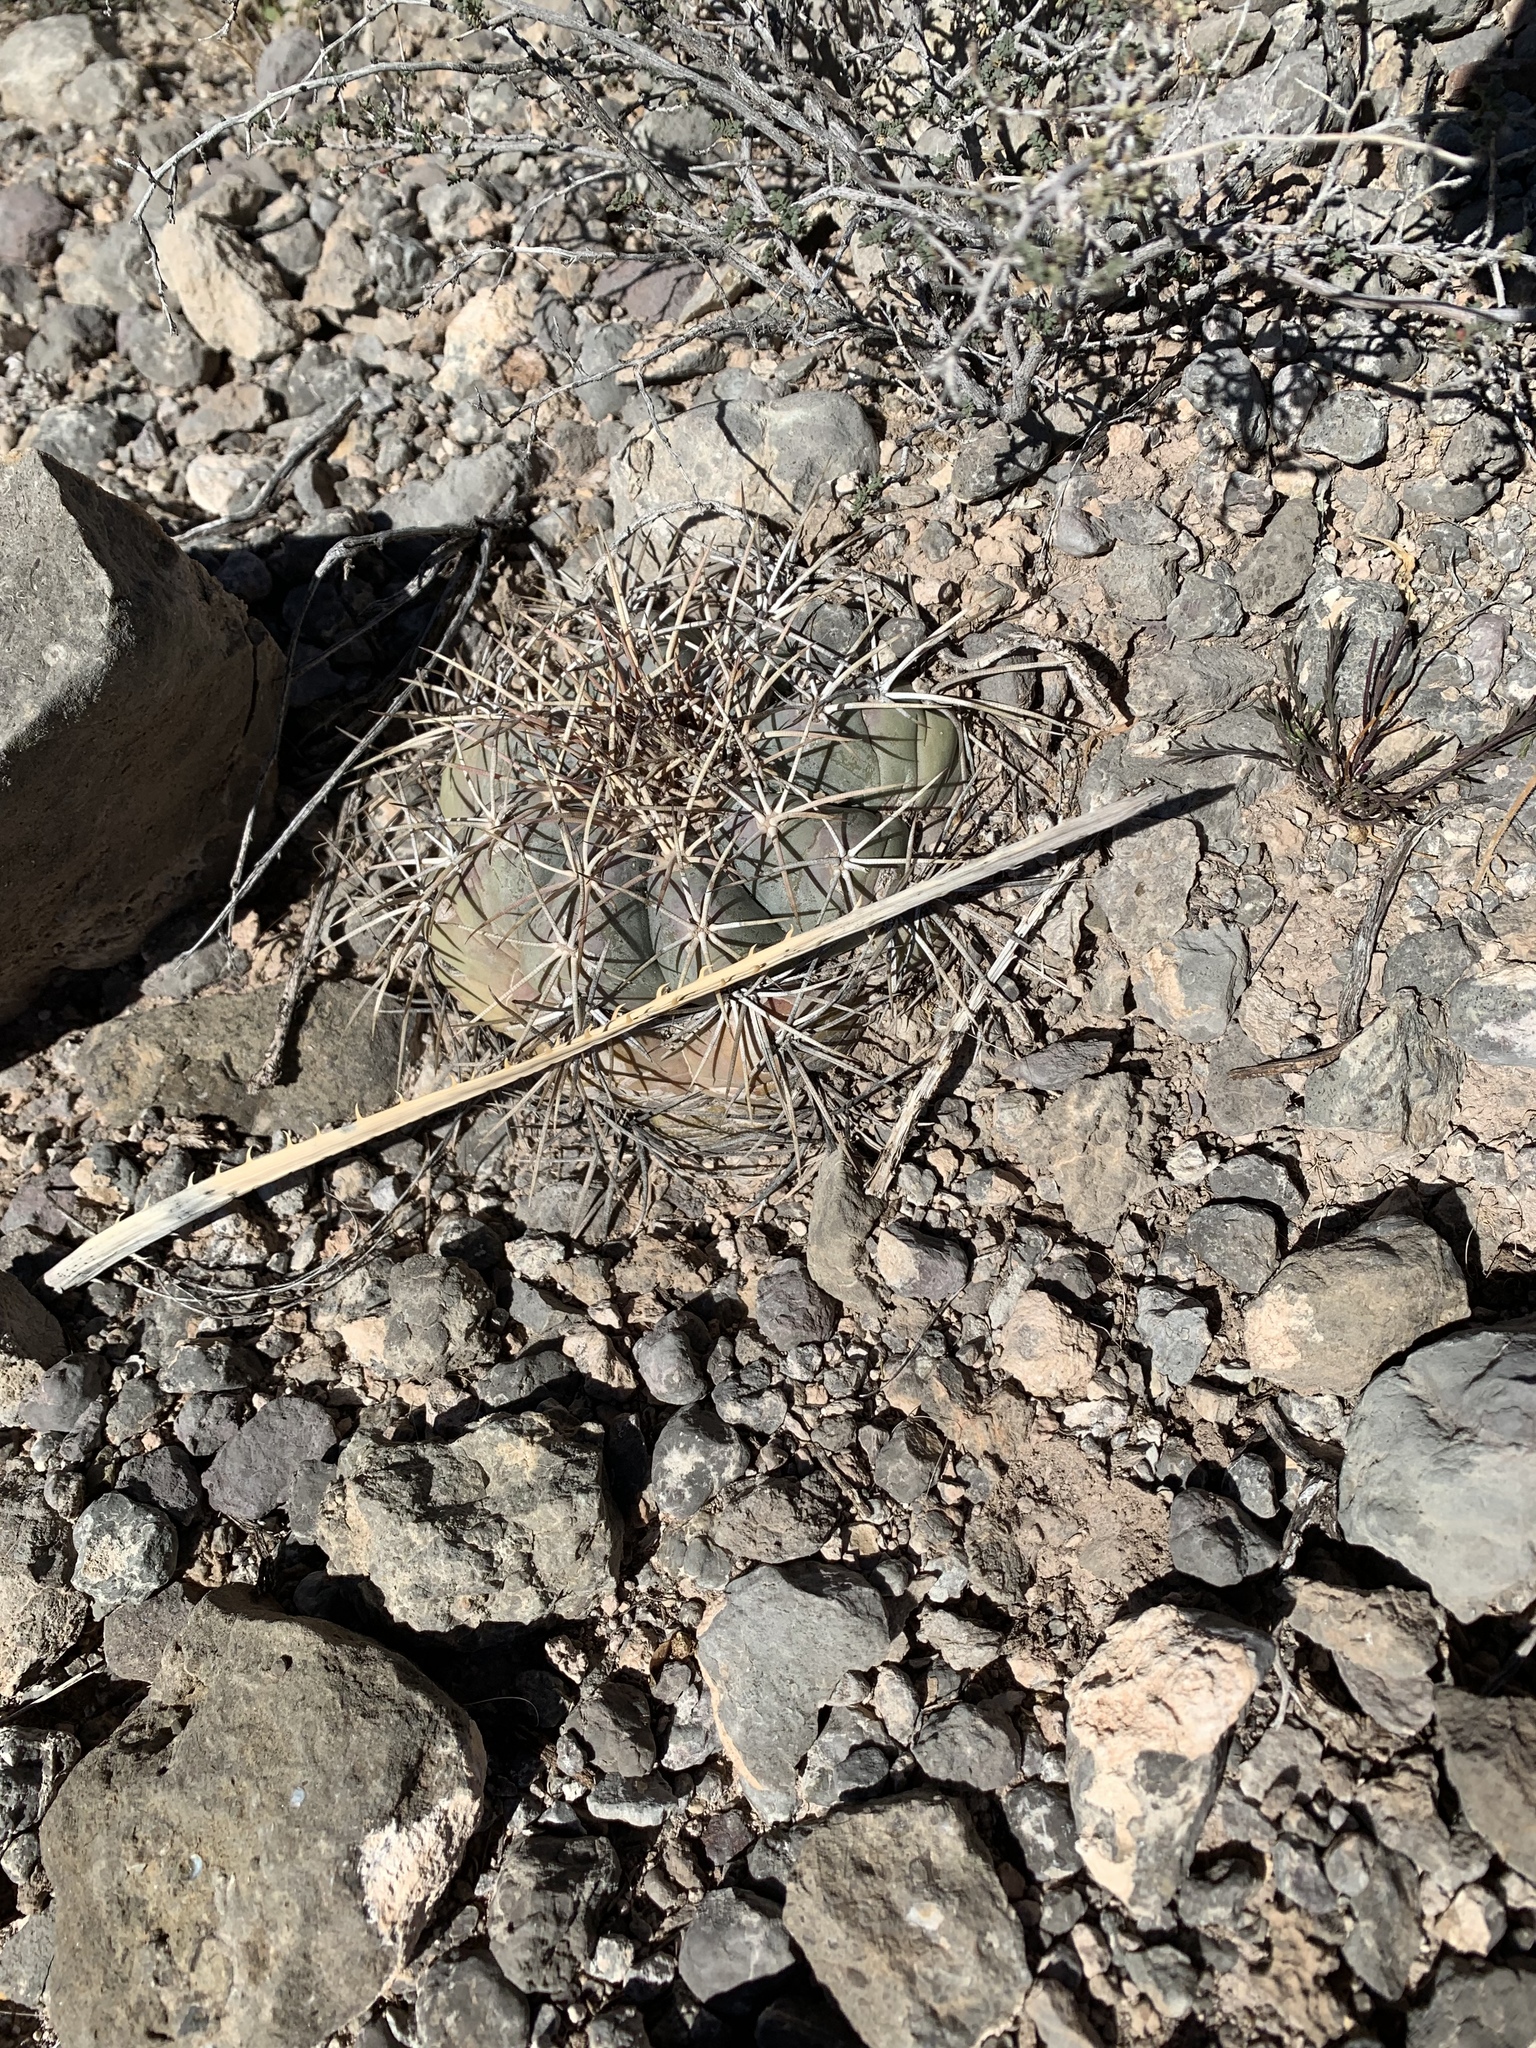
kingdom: Plantae
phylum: Tracheophyta
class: Magnoliopsida
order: Caryophyllales
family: Cactaceae
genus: Echinocactus
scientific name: Echinocactus horizonthalonius
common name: Devilshead
